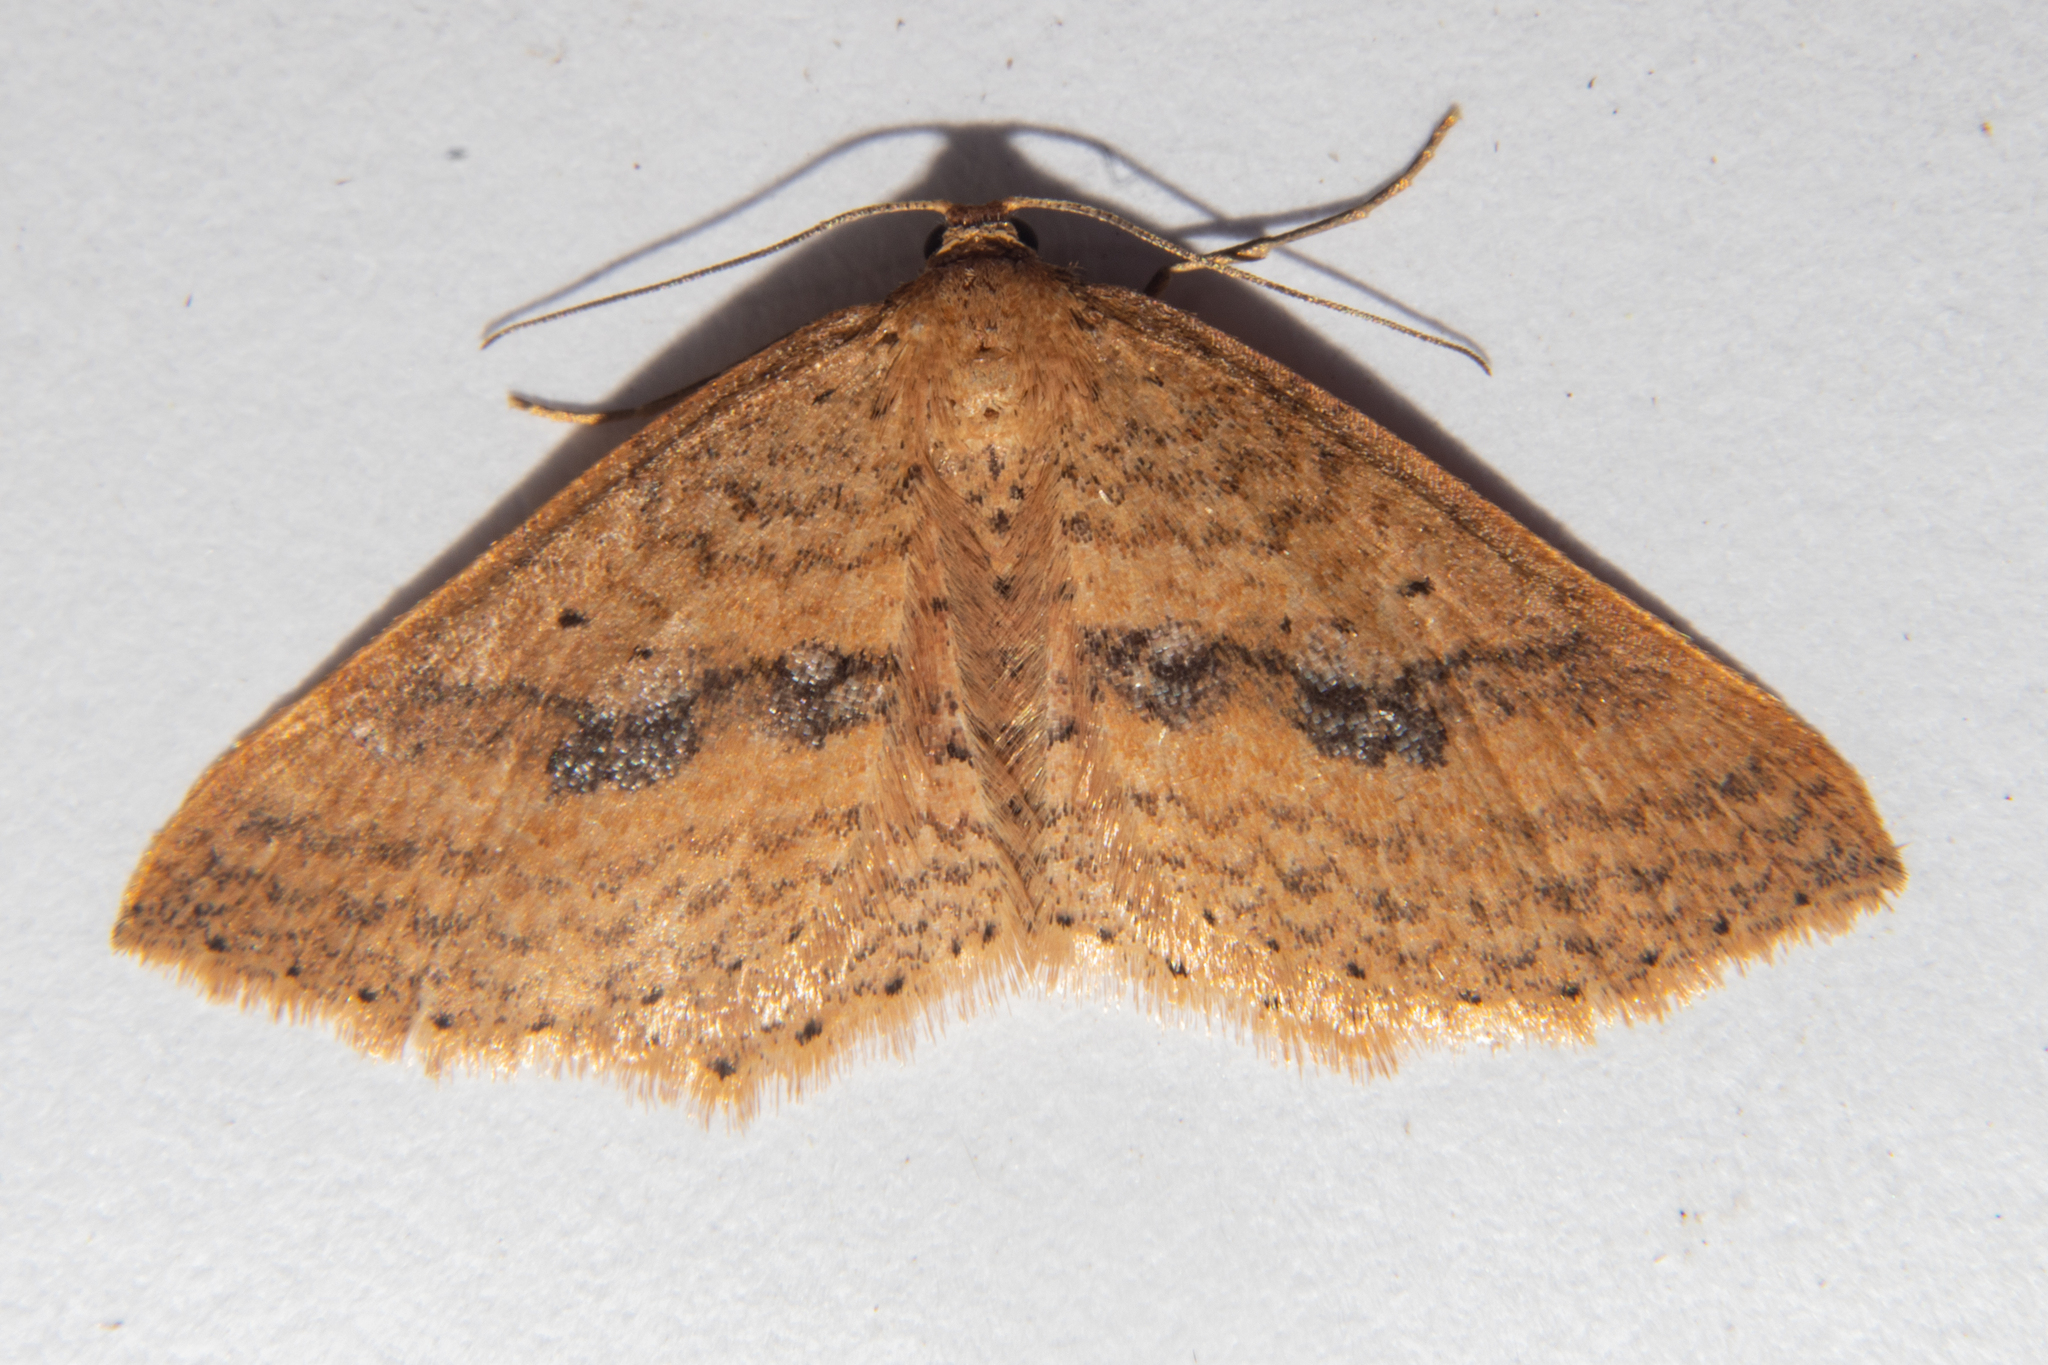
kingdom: Animalia
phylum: Arthropoda
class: Insecta
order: Lepidoptera
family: Geometridae
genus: Epicyme
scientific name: Epicyme rubropunctaria
